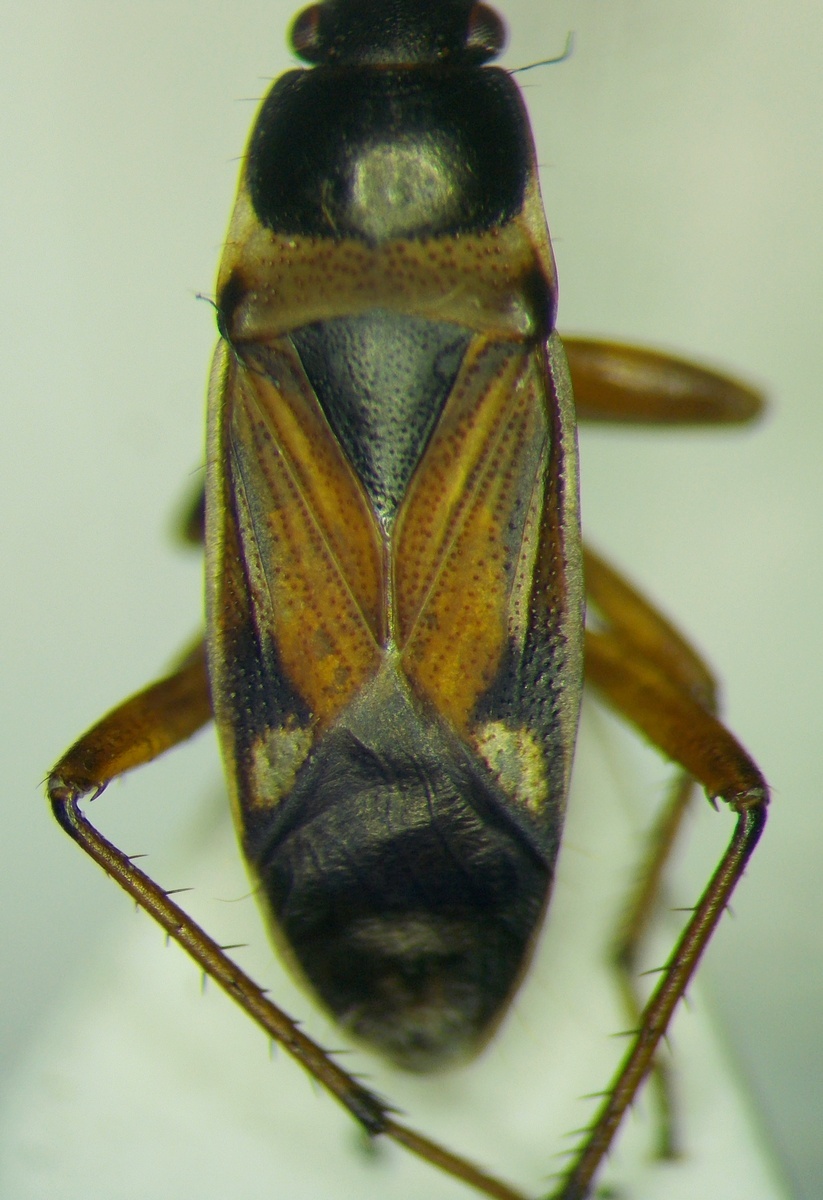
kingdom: Animalia
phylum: Arthropoda
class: Insecta
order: Hemiptera
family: Rhyparochromidae
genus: Raglius
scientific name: Raglius alboacuminatus
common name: Dirt-colored seed bug
